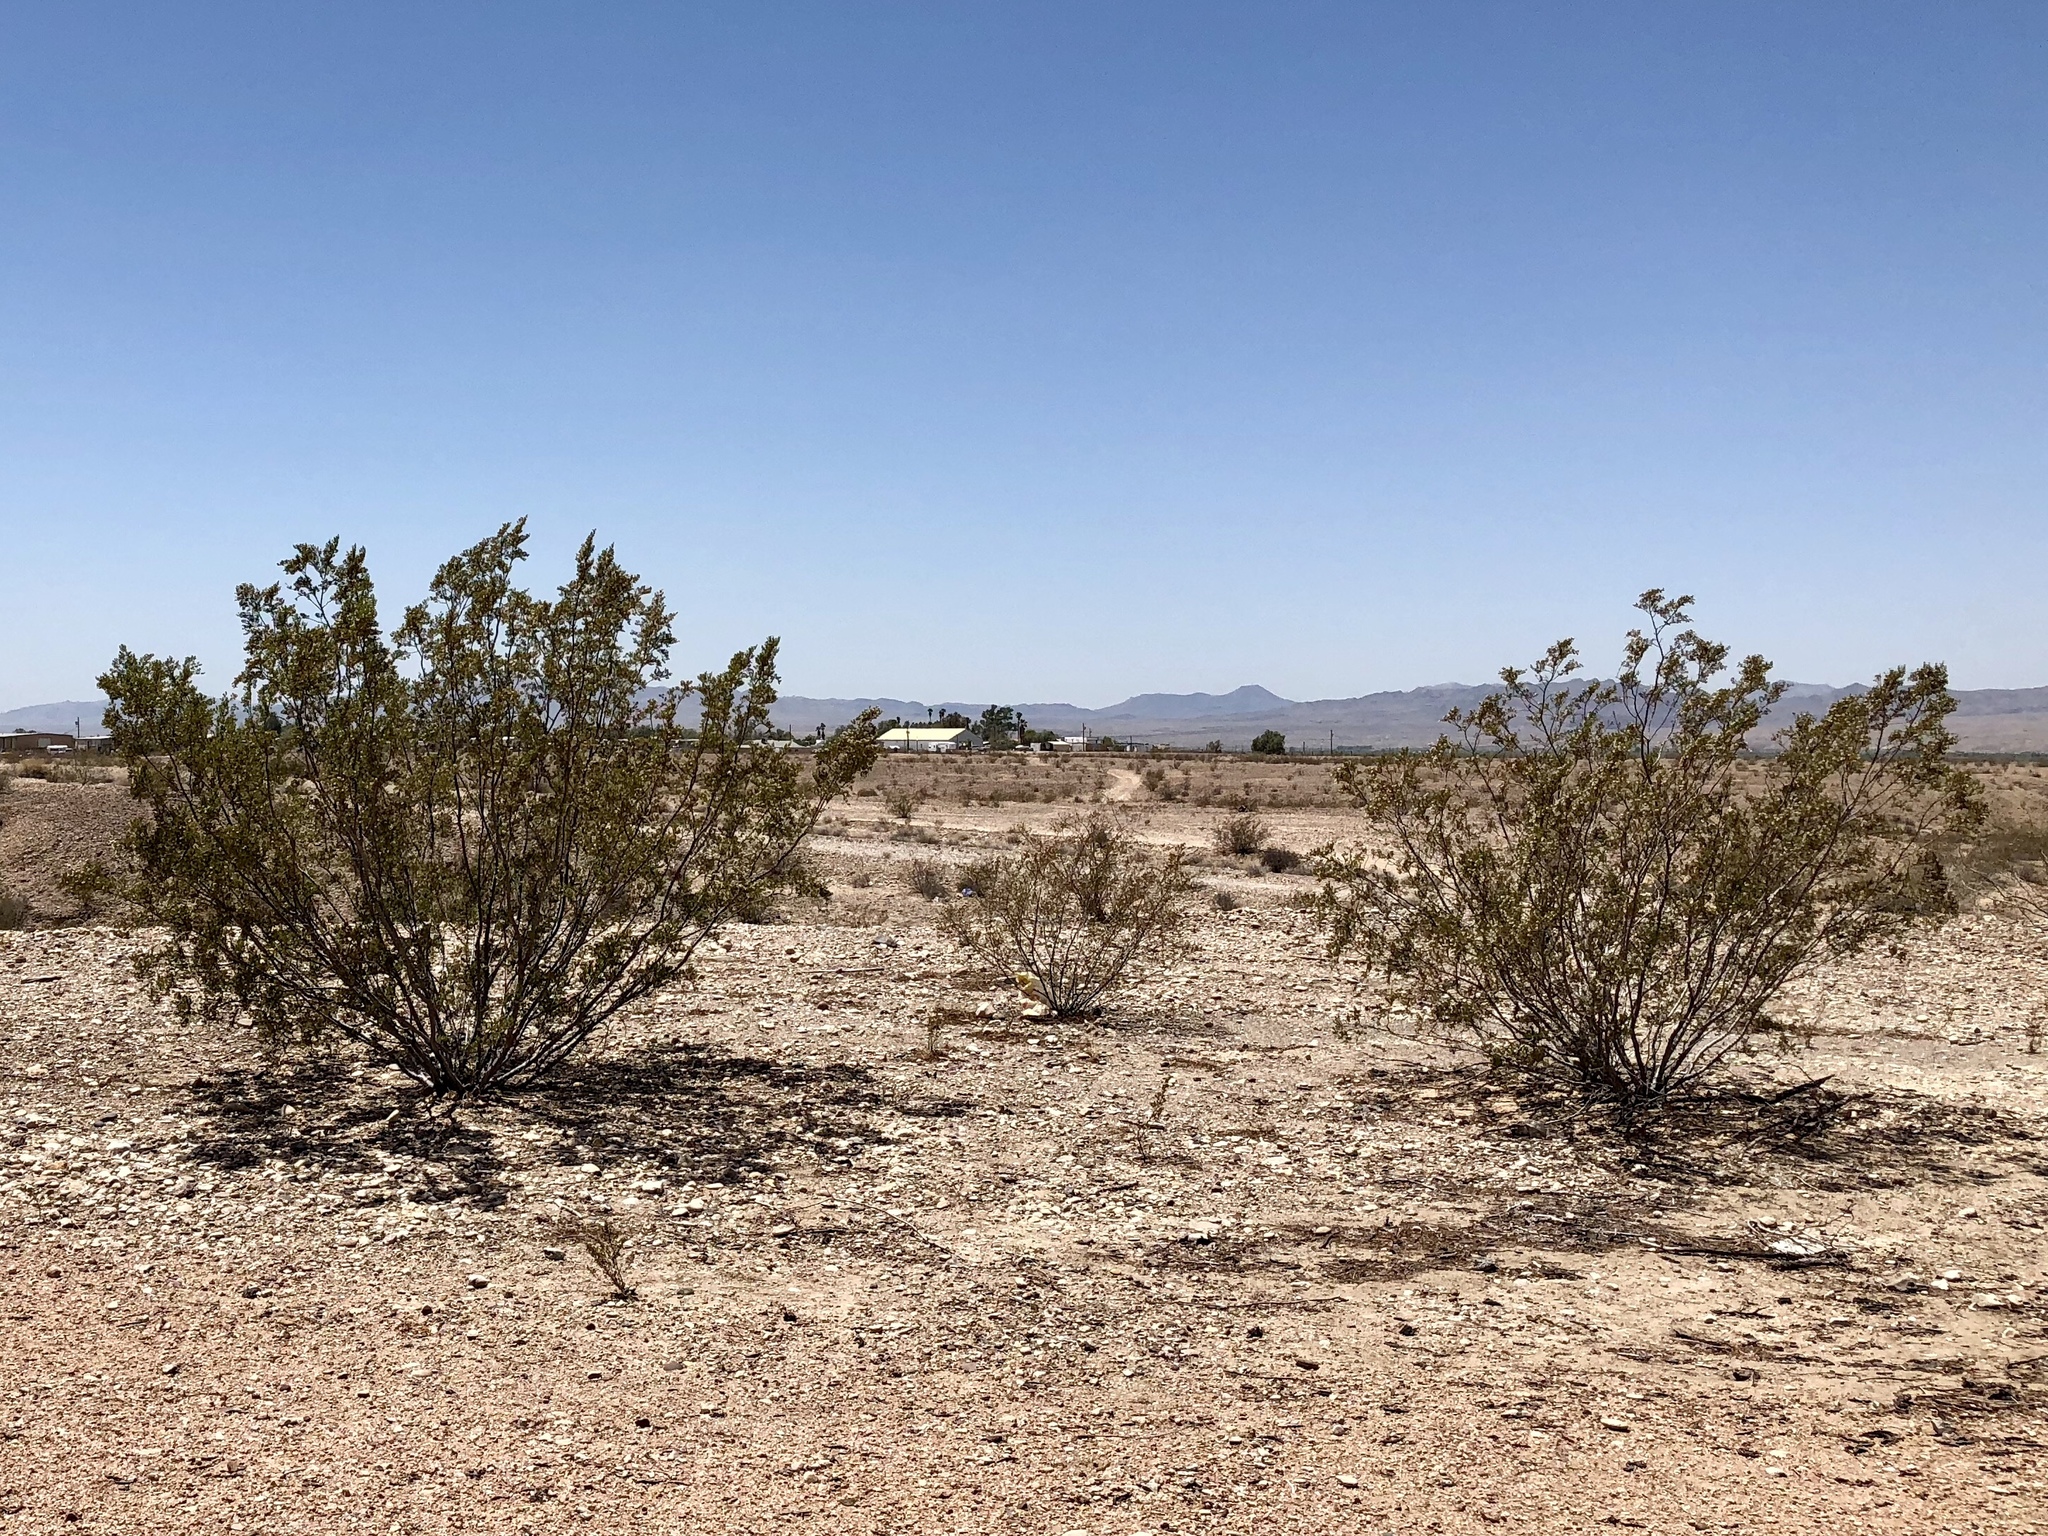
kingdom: Plantae
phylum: Tracheophyta
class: Magnoliopsida
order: Zygophyllales
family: Zygophyllaceae
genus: Larrea
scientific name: Larrea tridentata
